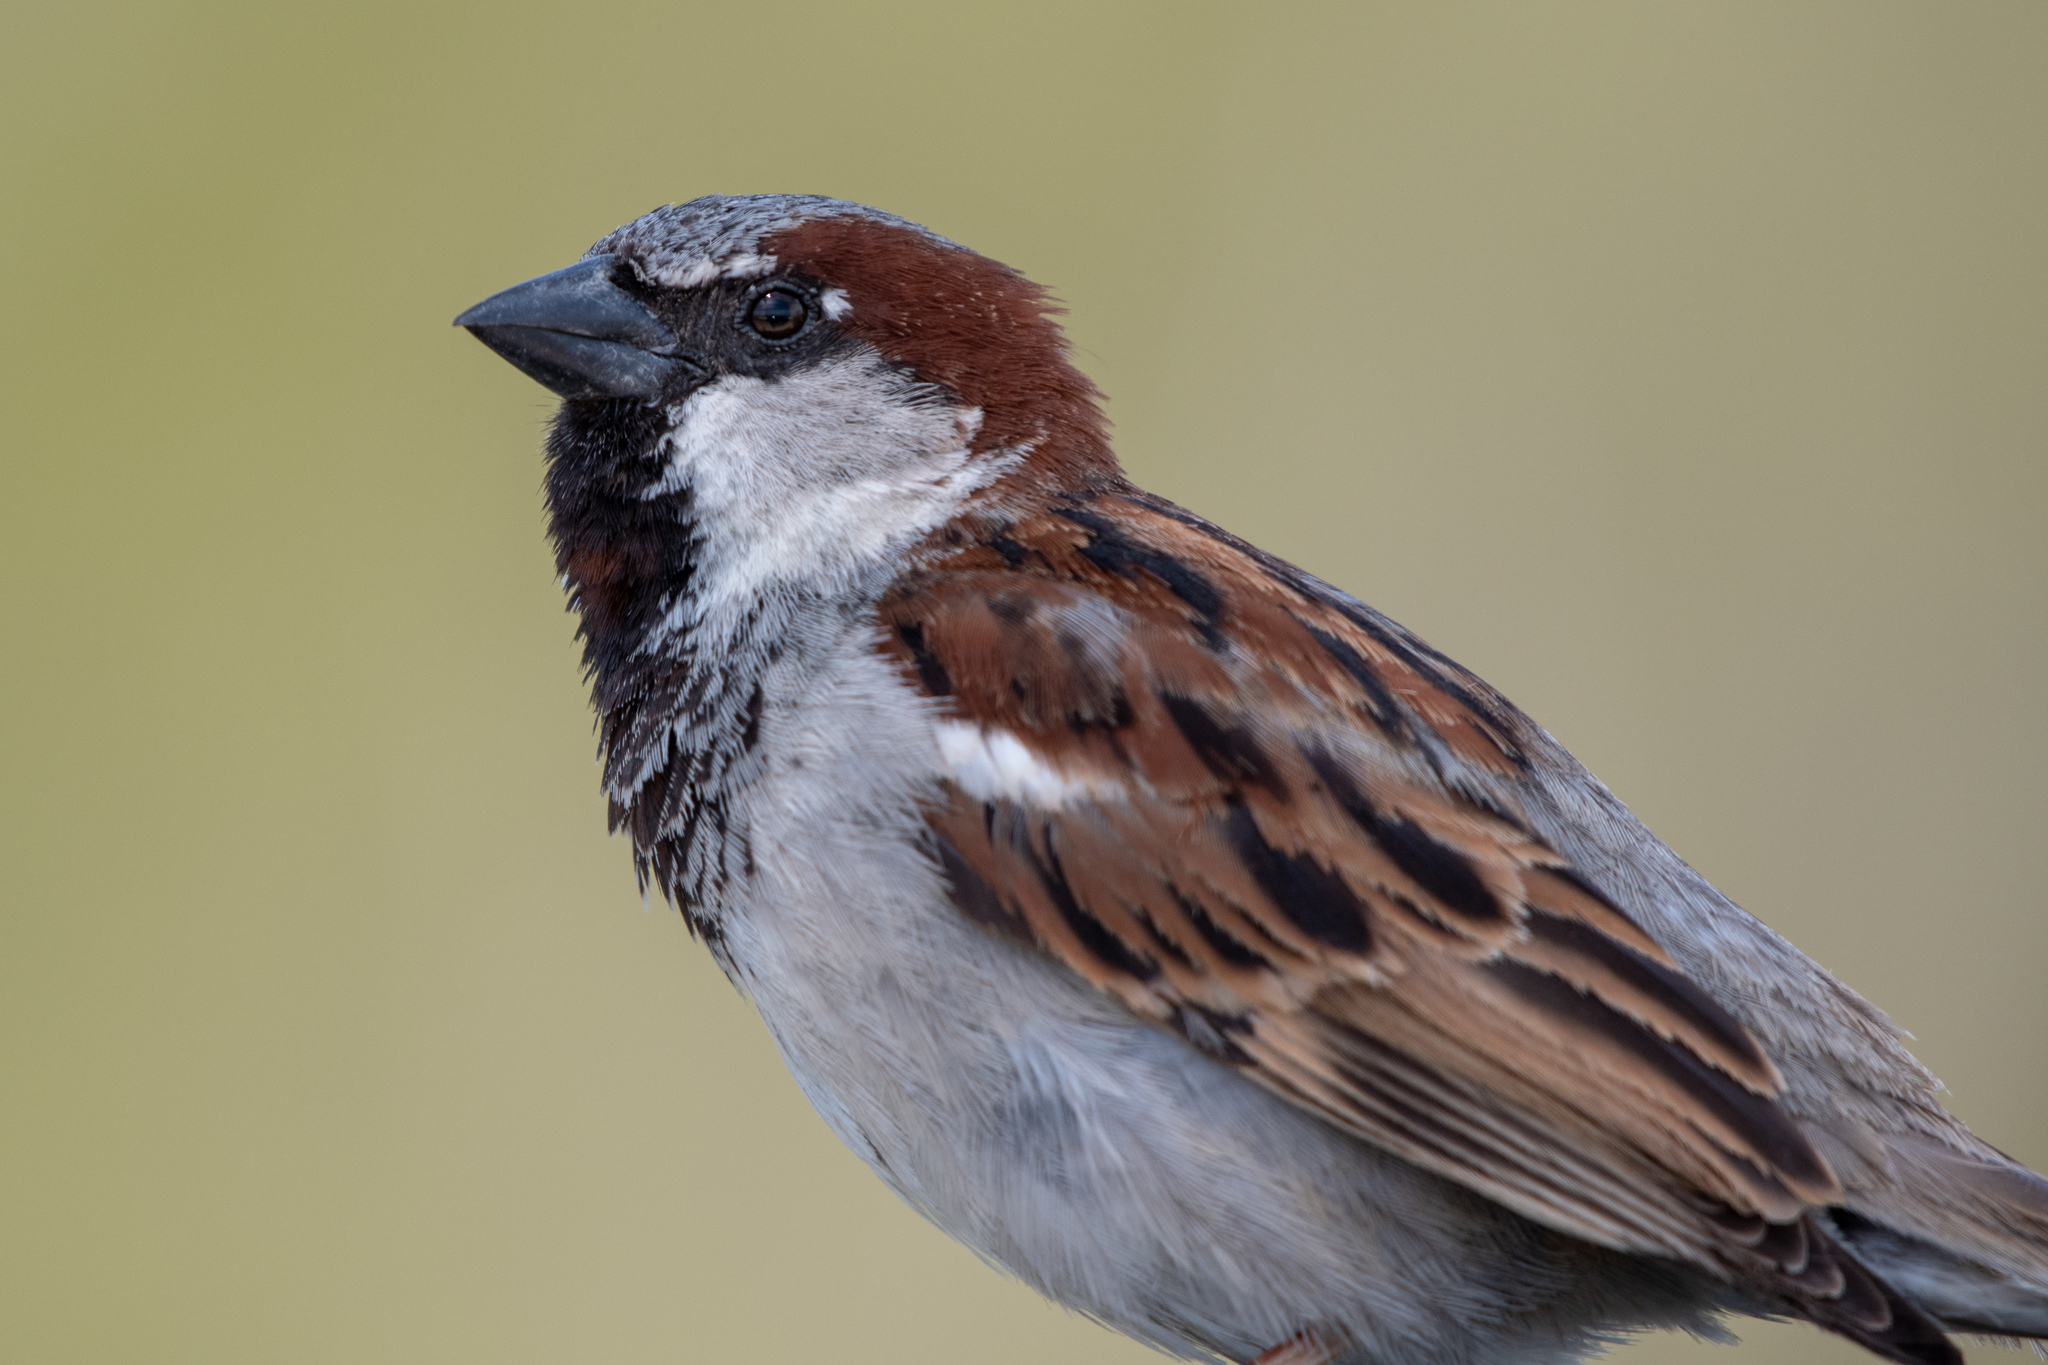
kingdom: Animalia
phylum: Chordata
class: Aves
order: Passeriformes
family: Passeridae
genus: Passer
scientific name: Passer domesticus
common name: House sparrow
